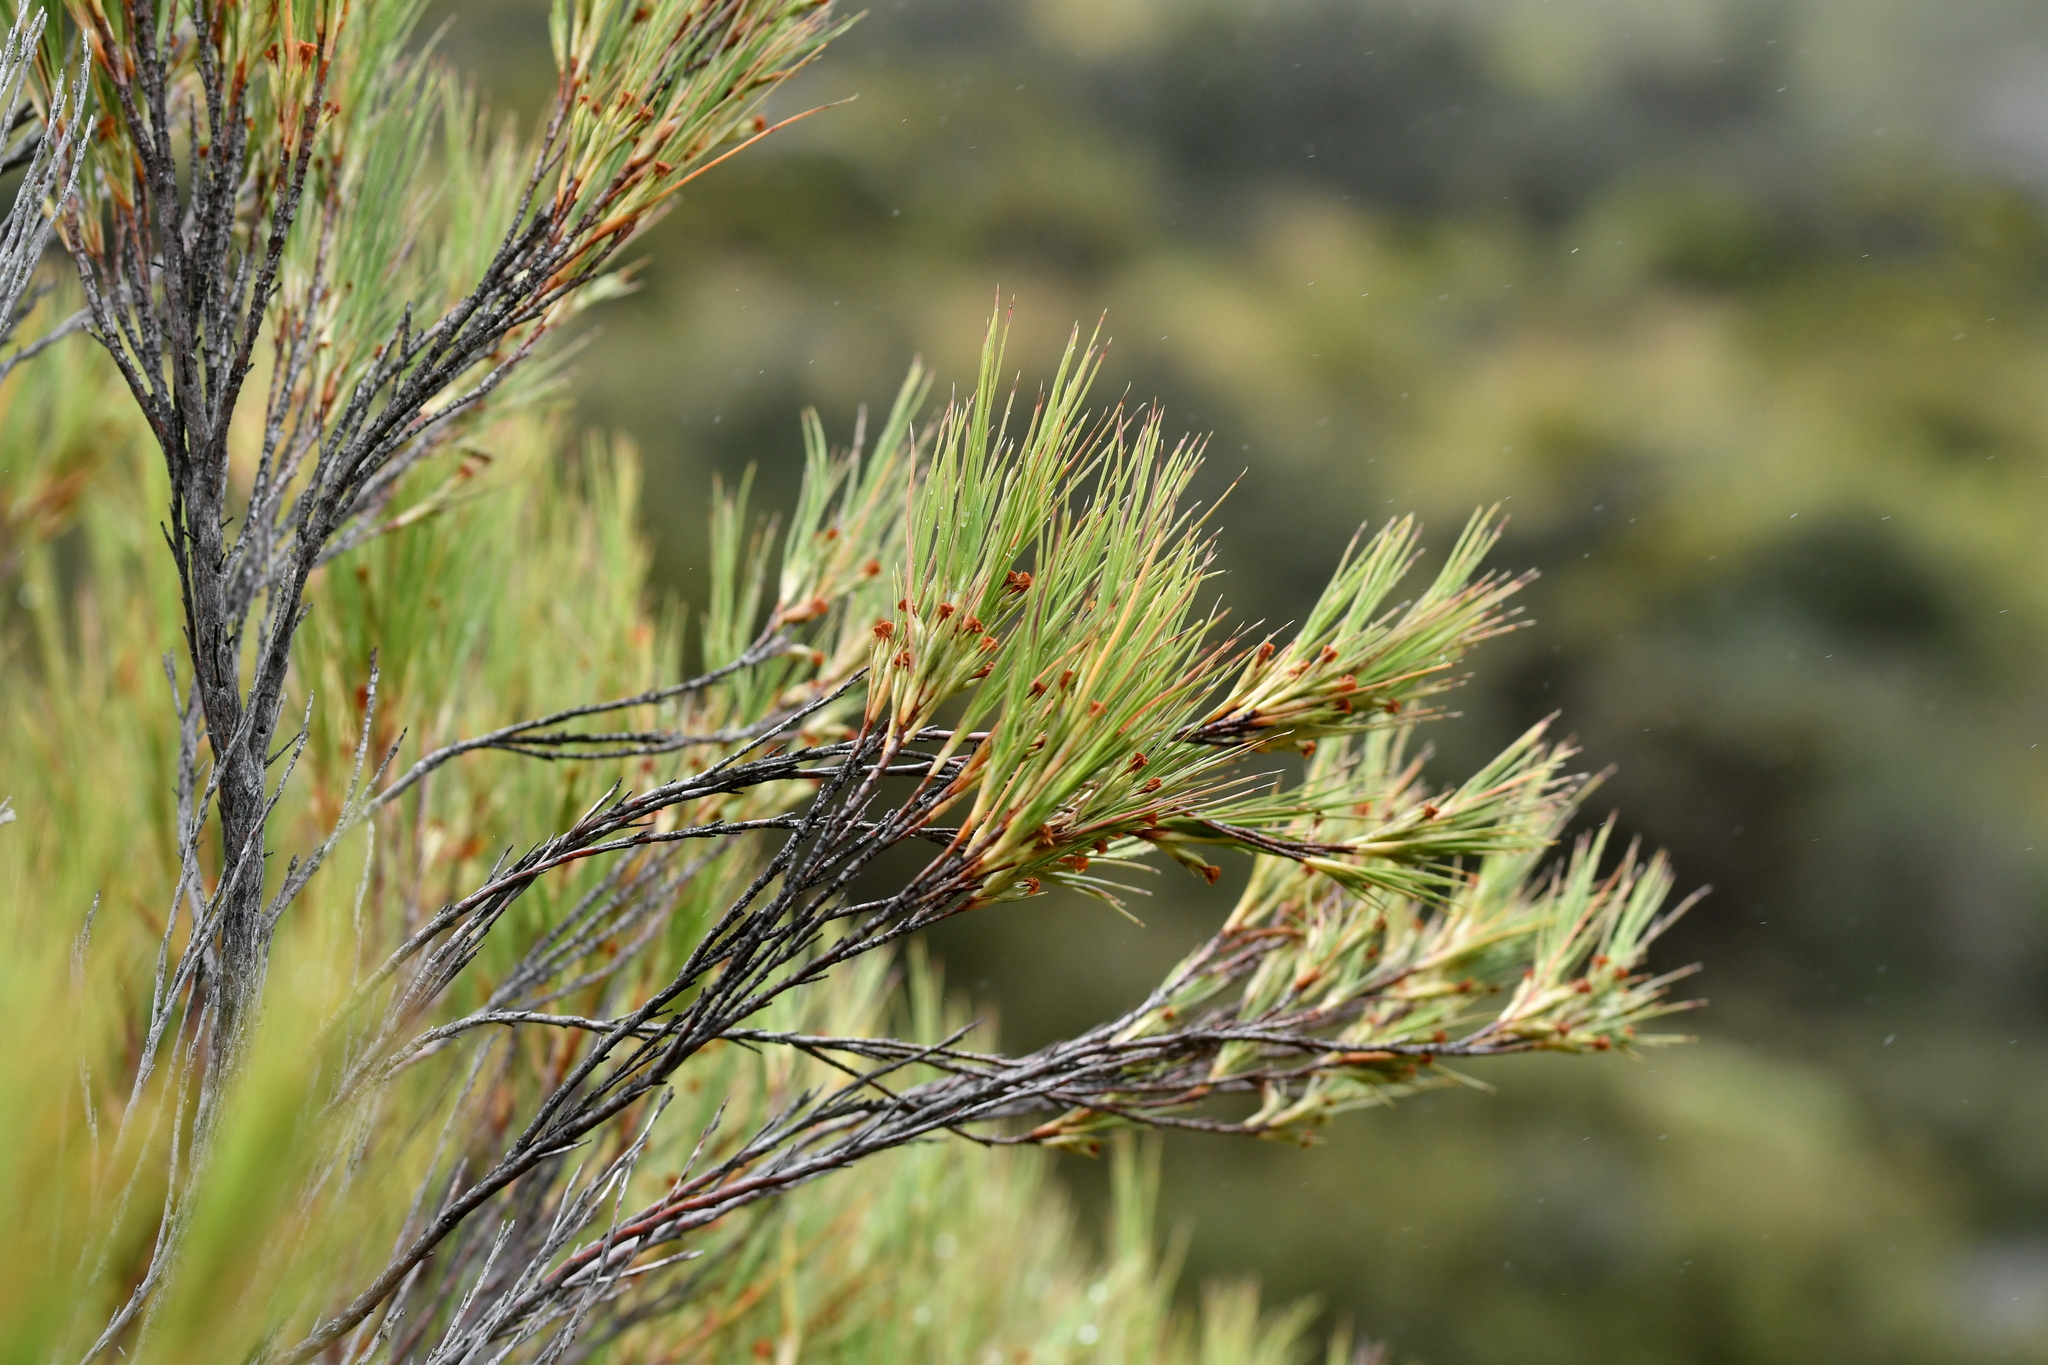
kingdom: Plantae
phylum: Tracheophyta
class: Magnoliopsida
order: Ericales
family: Ericaceae
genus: Dracophyllum
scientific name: Dracophyllum acerosum
